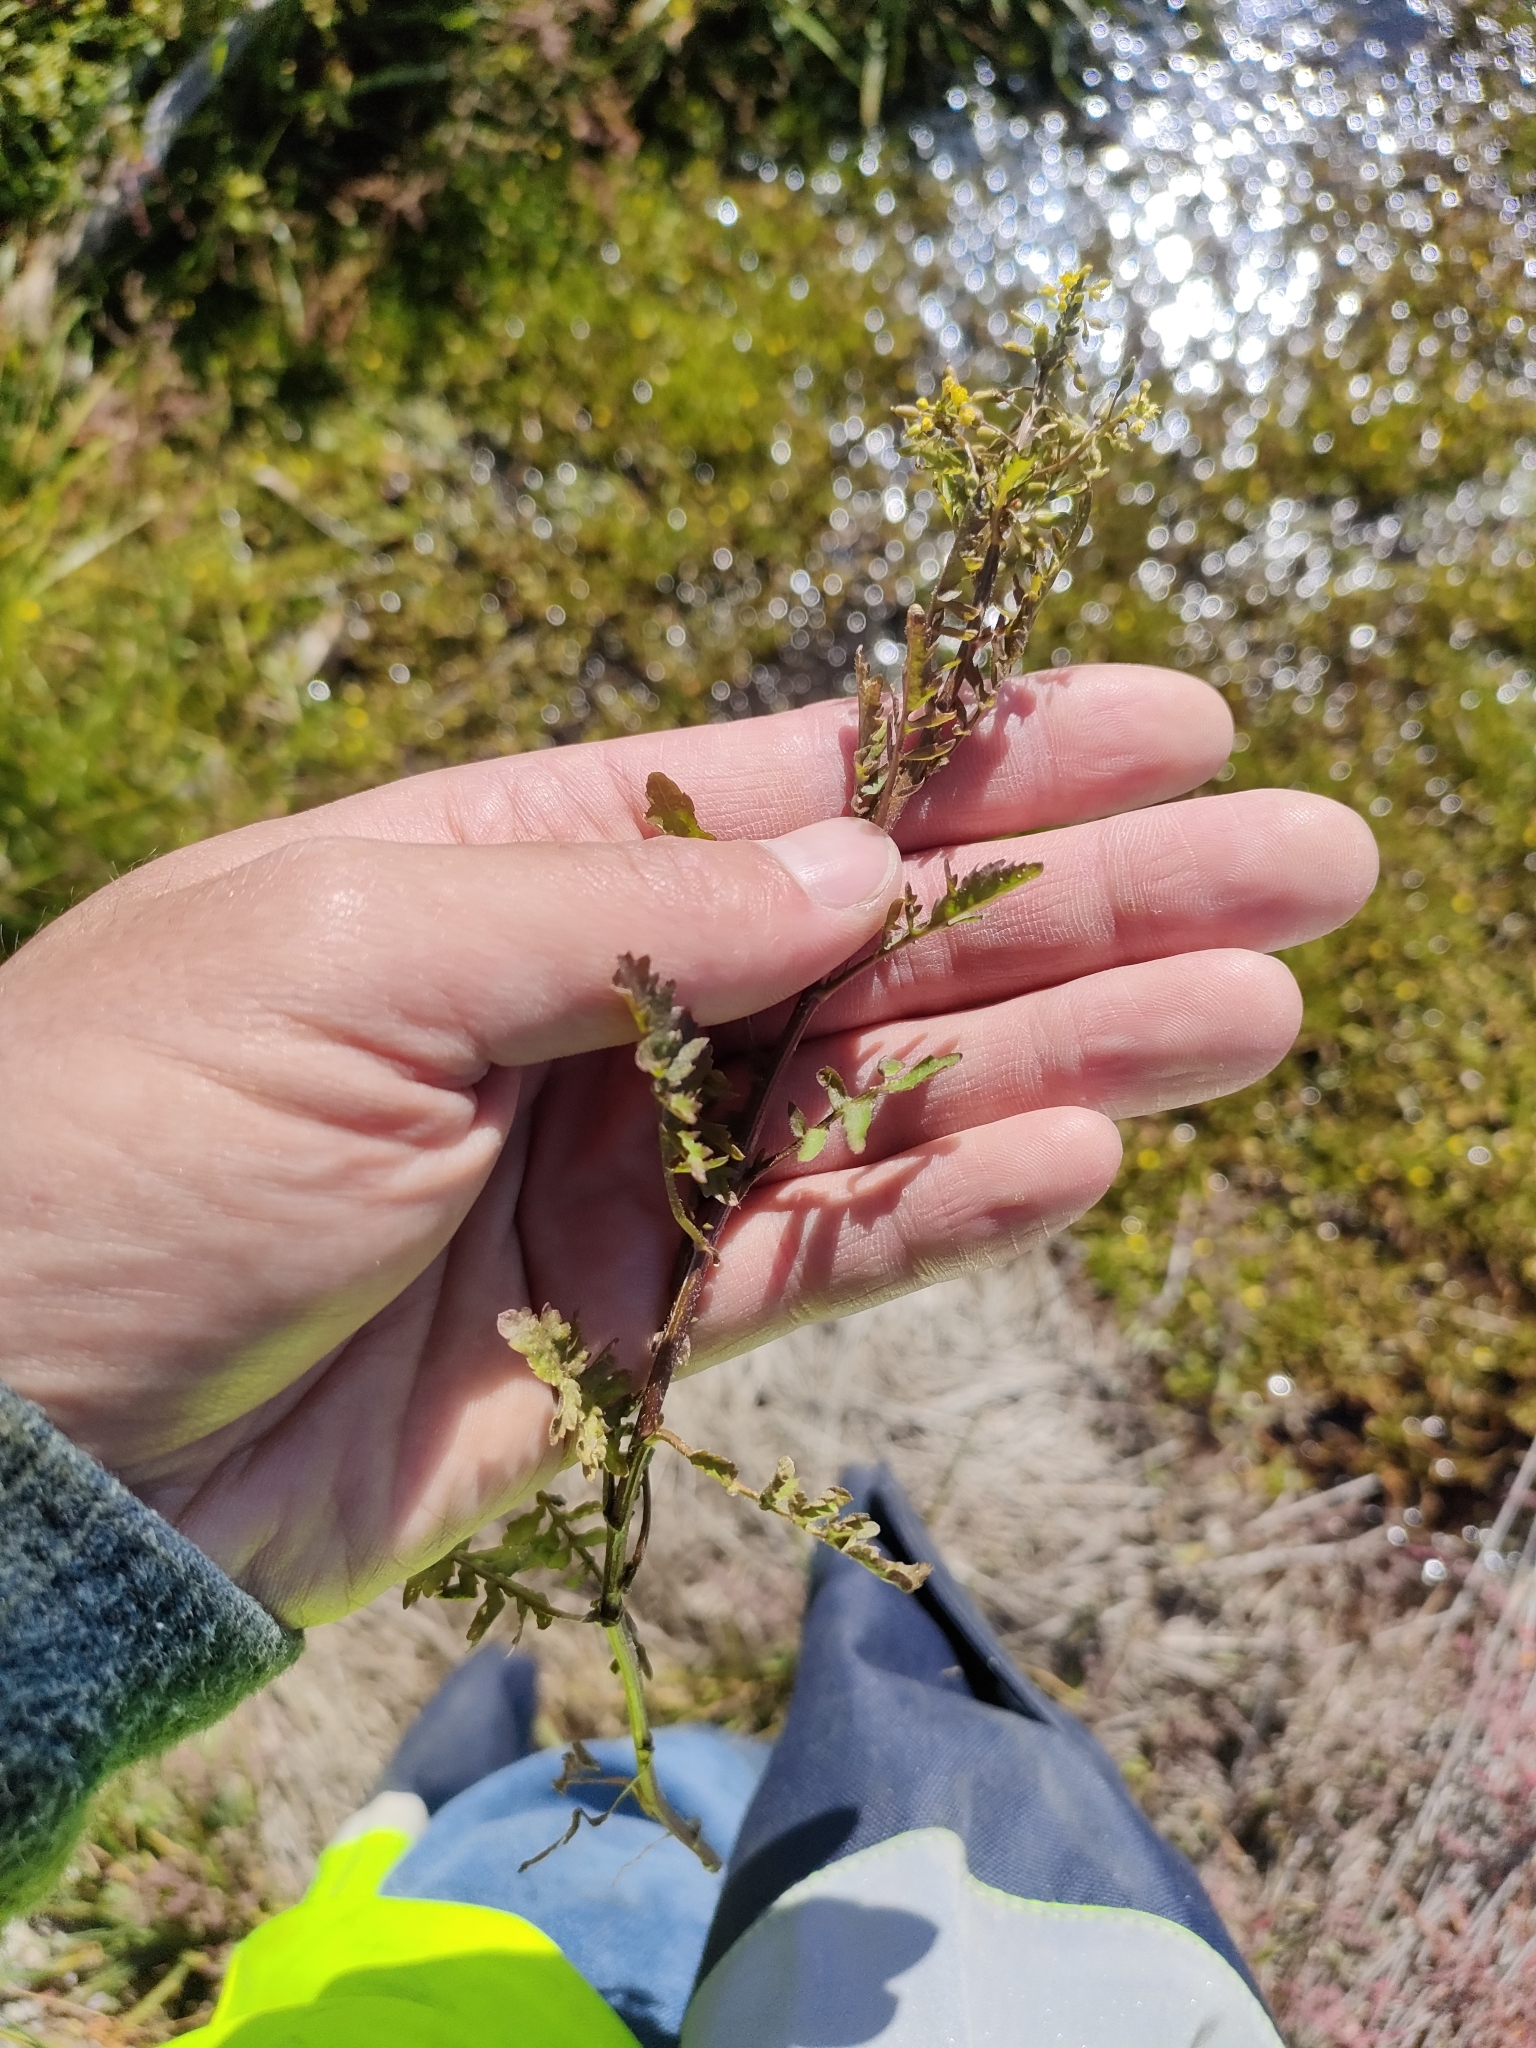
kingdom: Plantae
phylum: Tracheophyta
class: Magnoliopsida
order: Brassicales
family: Brassicaceae
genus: Rorippa
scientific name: Rorippa palustris
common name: Marsh yellow-cress
